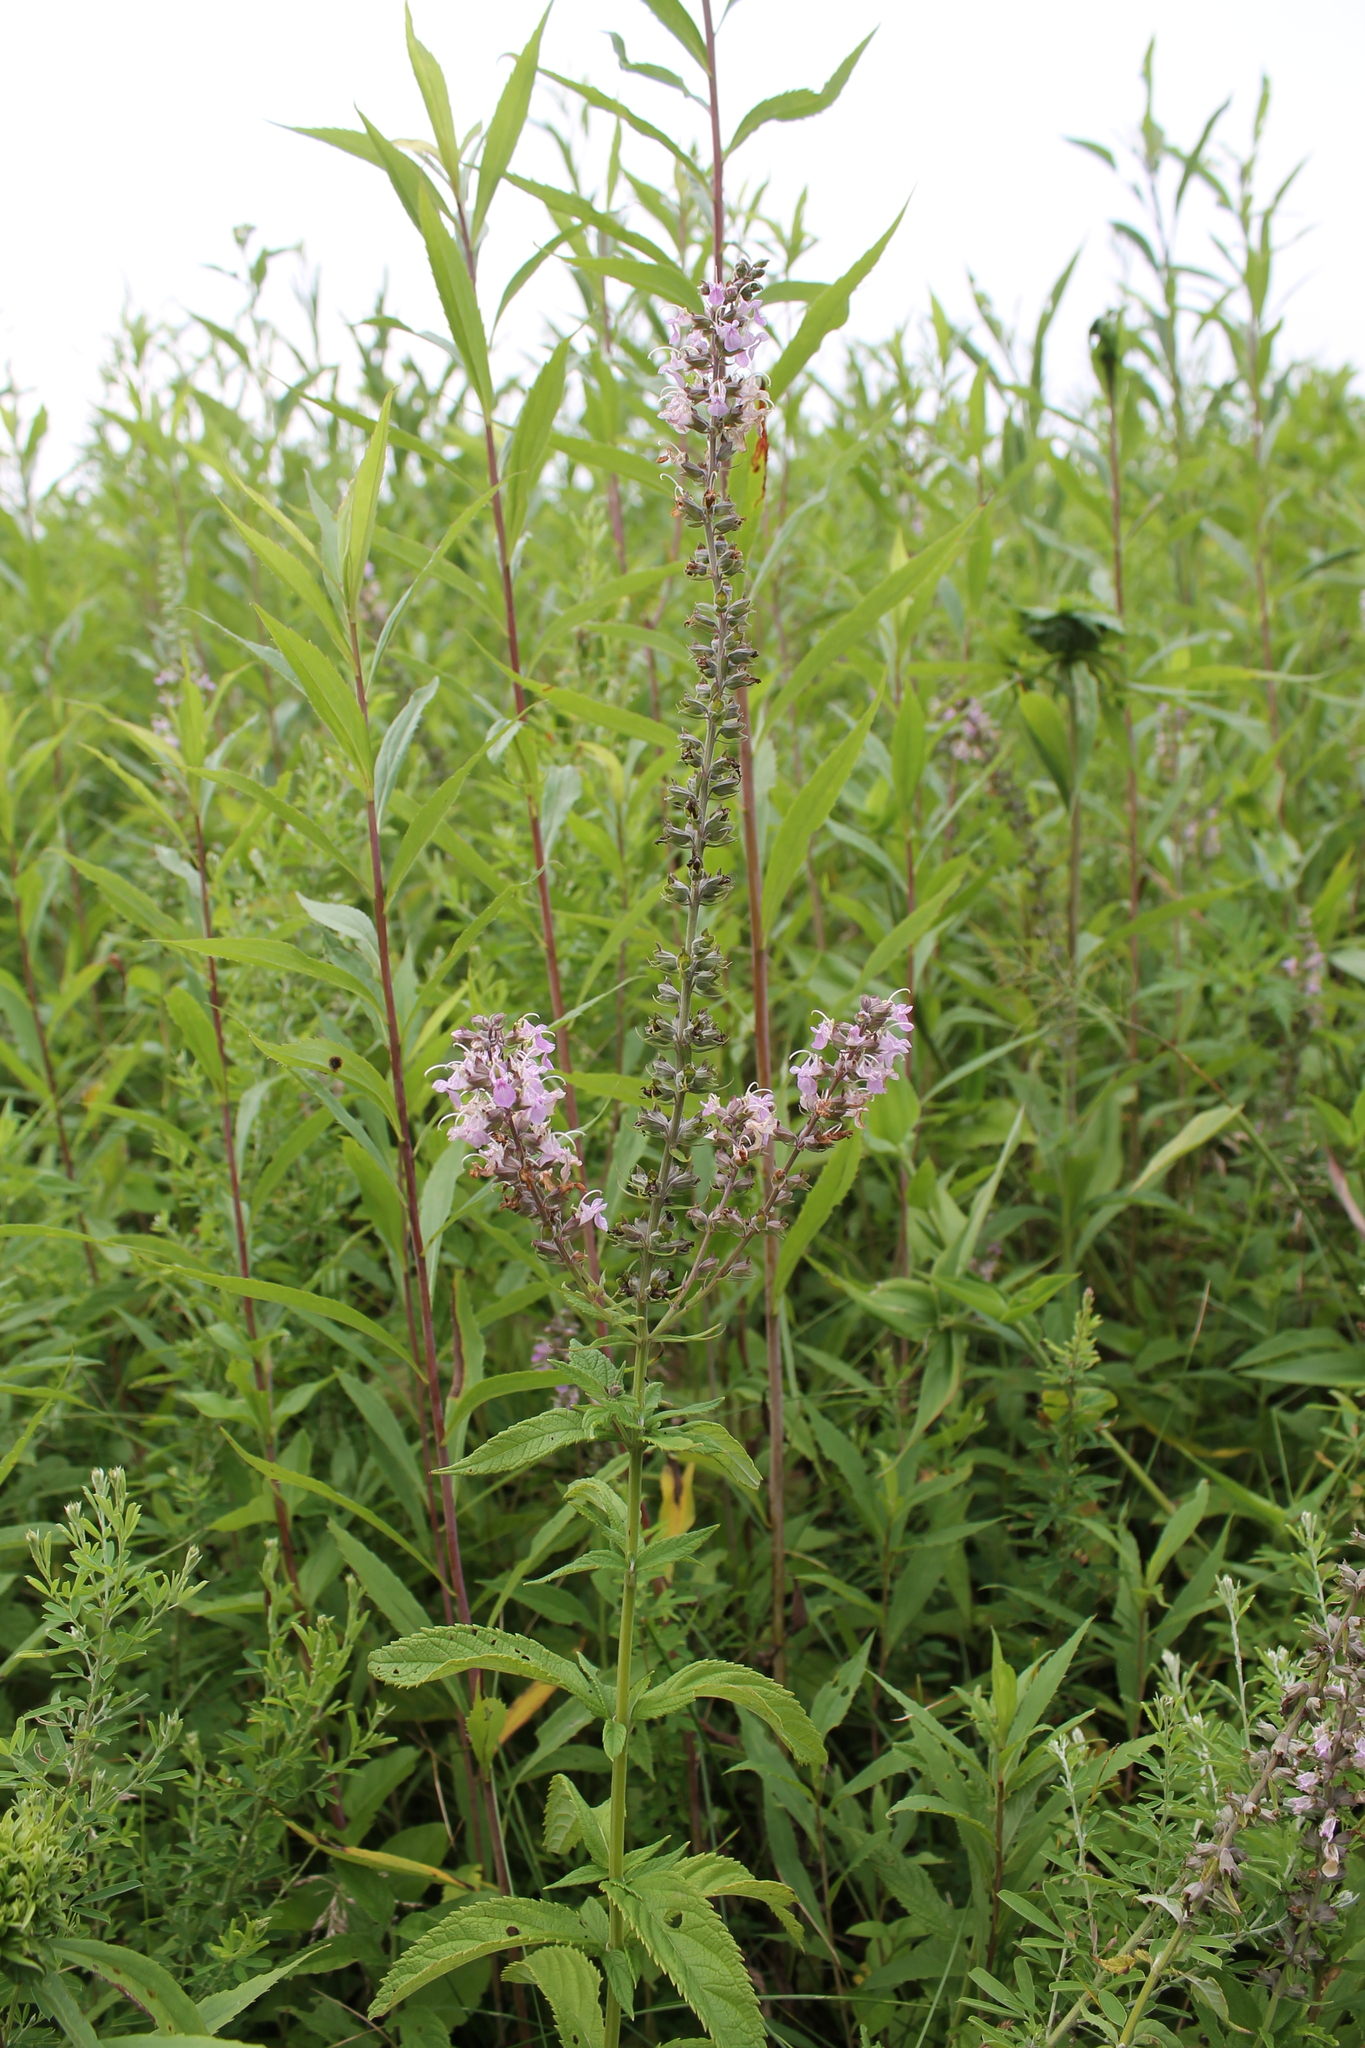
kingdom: Plantae
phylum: Tracheophyta
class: Magnoliopsida
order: Lamiales
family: Lamiaceae
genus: Teucrium
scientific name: Teucrium canadense
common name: American germander
